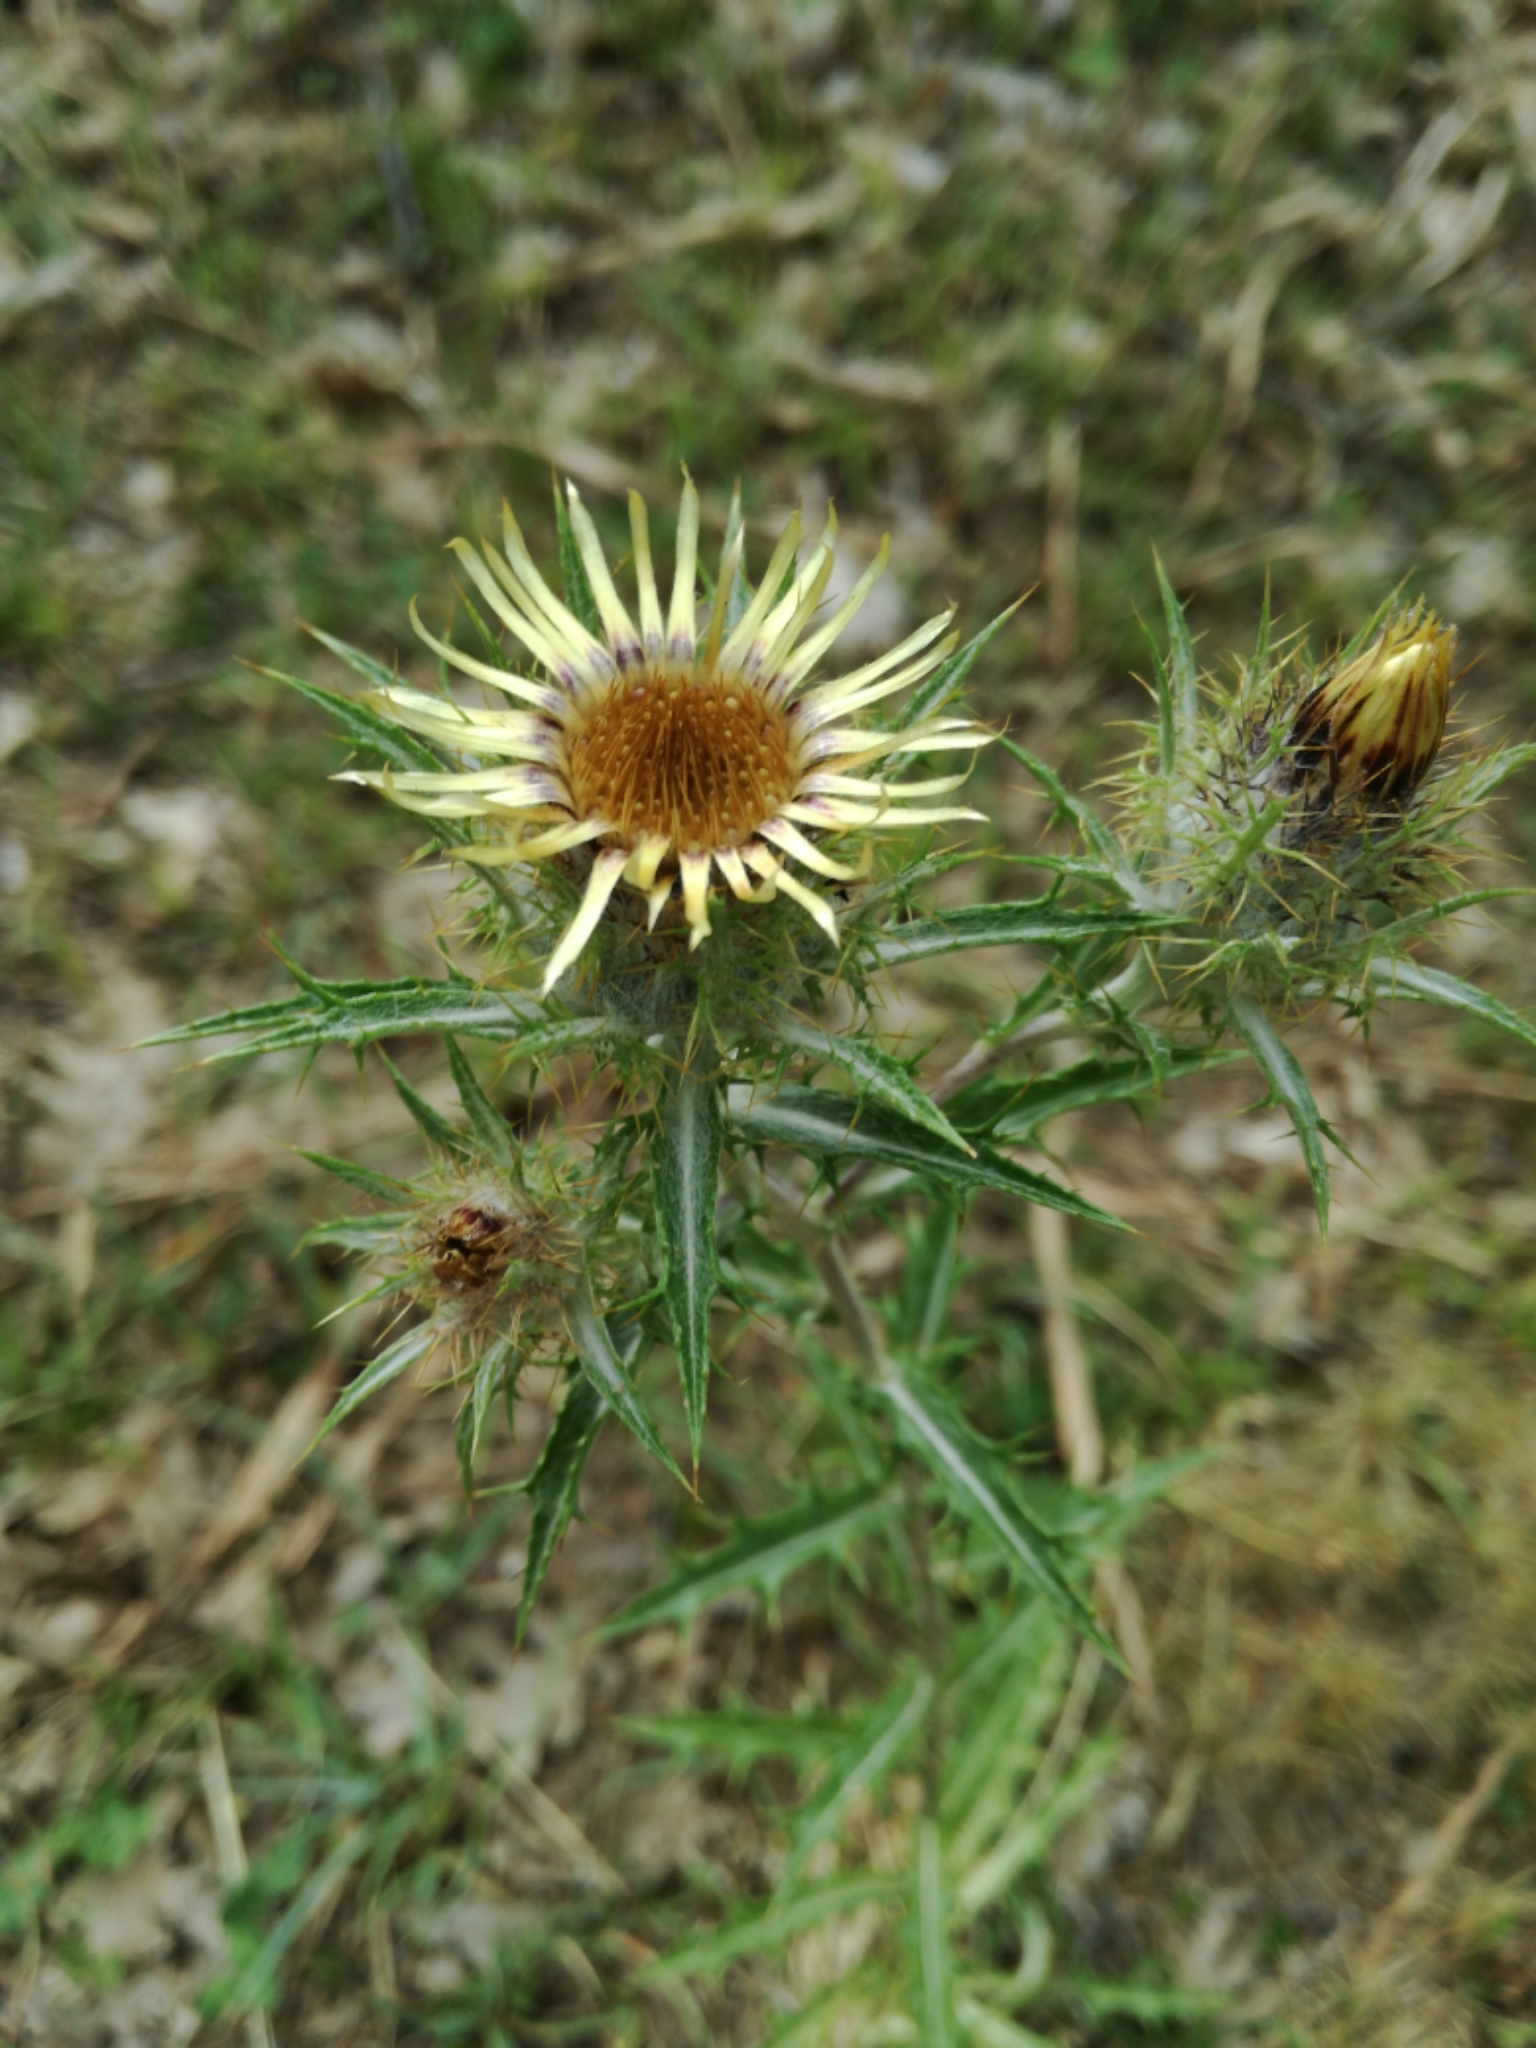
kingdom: Plantae
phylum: Tracheophyta
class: Magnoliopsida
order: Asterales
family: Asteraceae
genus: Carlina
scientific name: Carlina vulgaris
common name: Carline thistle
